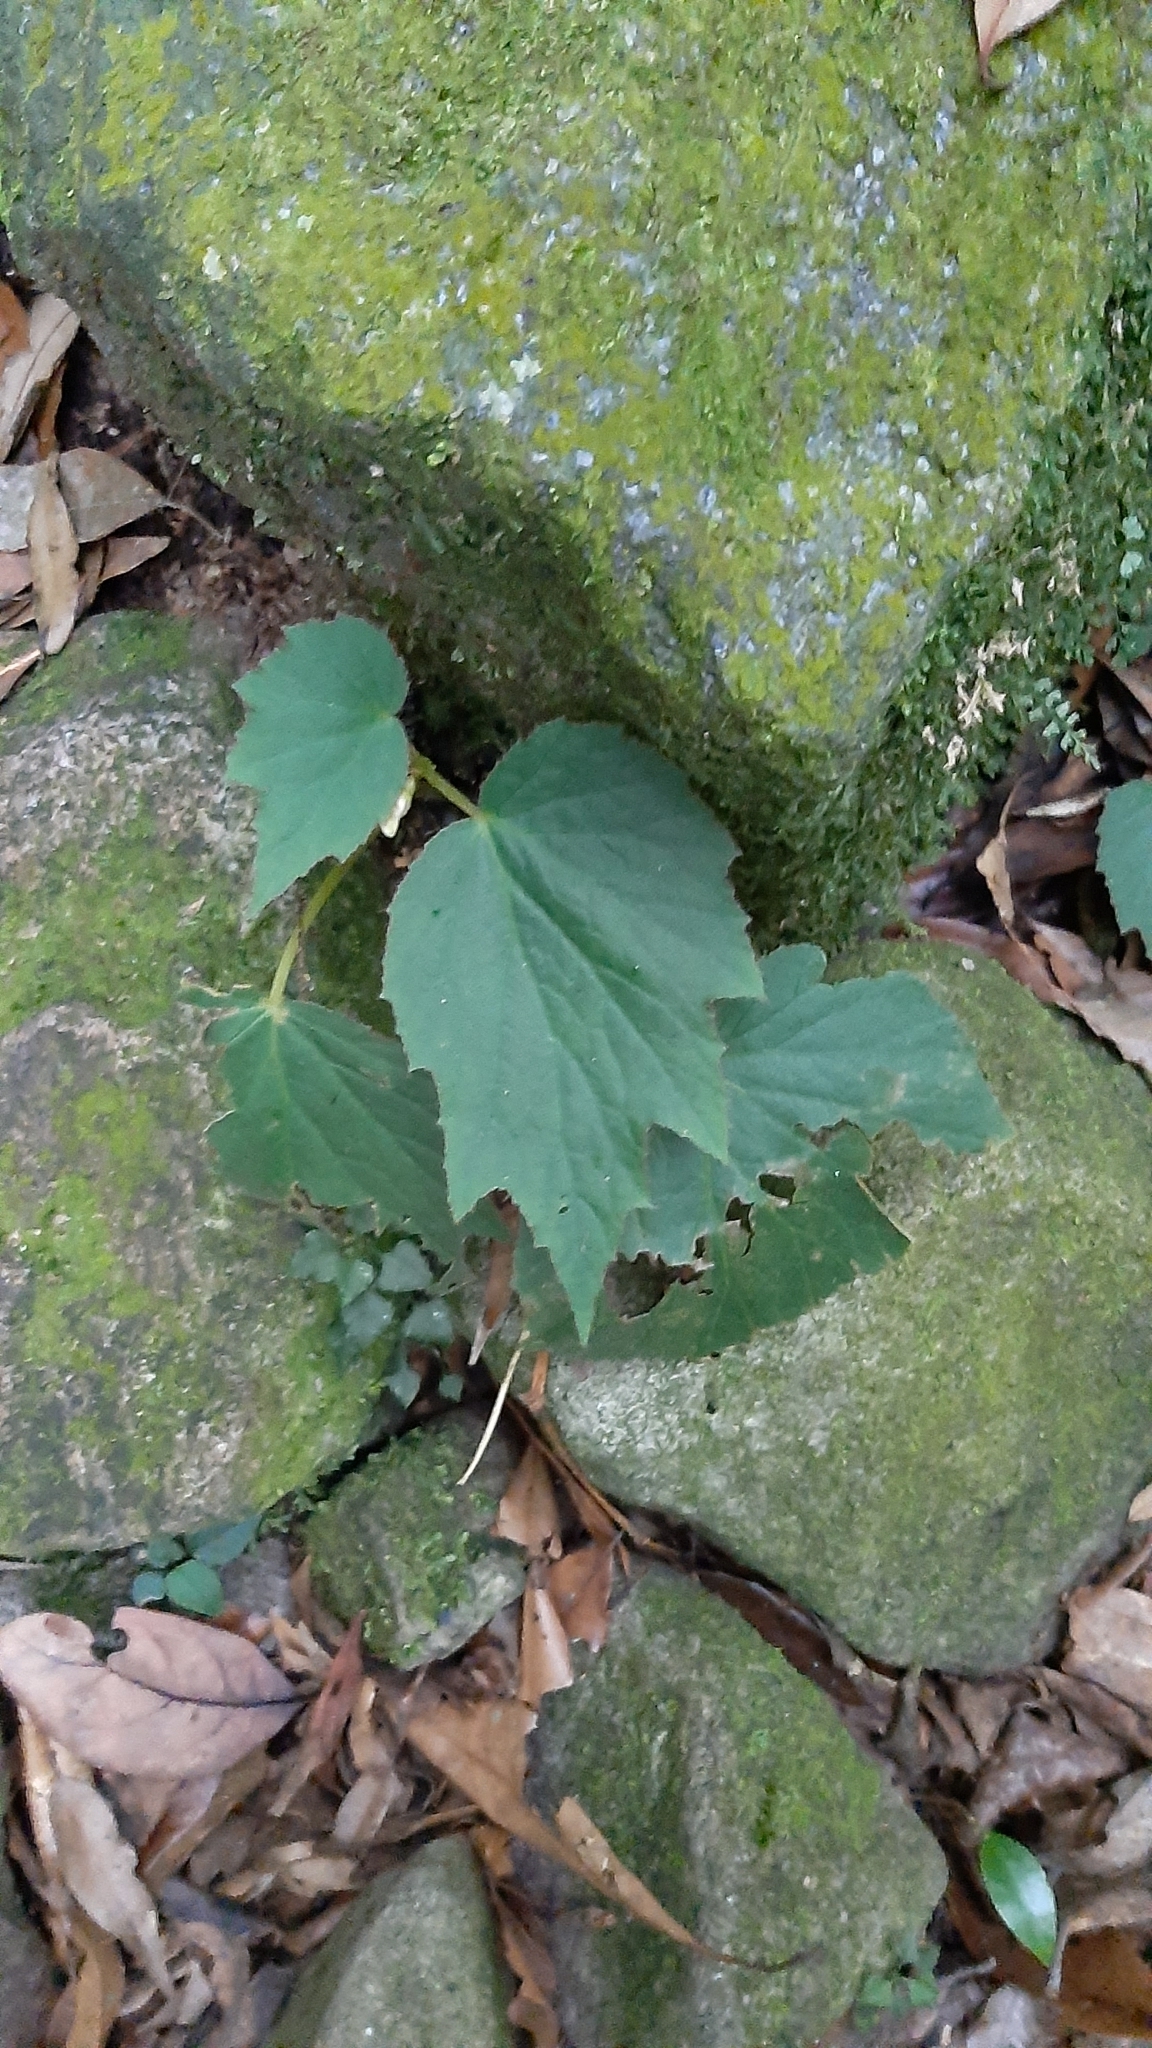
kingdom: Plantae
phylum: Tracheophyta
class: Magnoliopsida
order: Cucurbitales
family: Begoniaceae
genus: Begonia
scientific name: Begonia palmata
